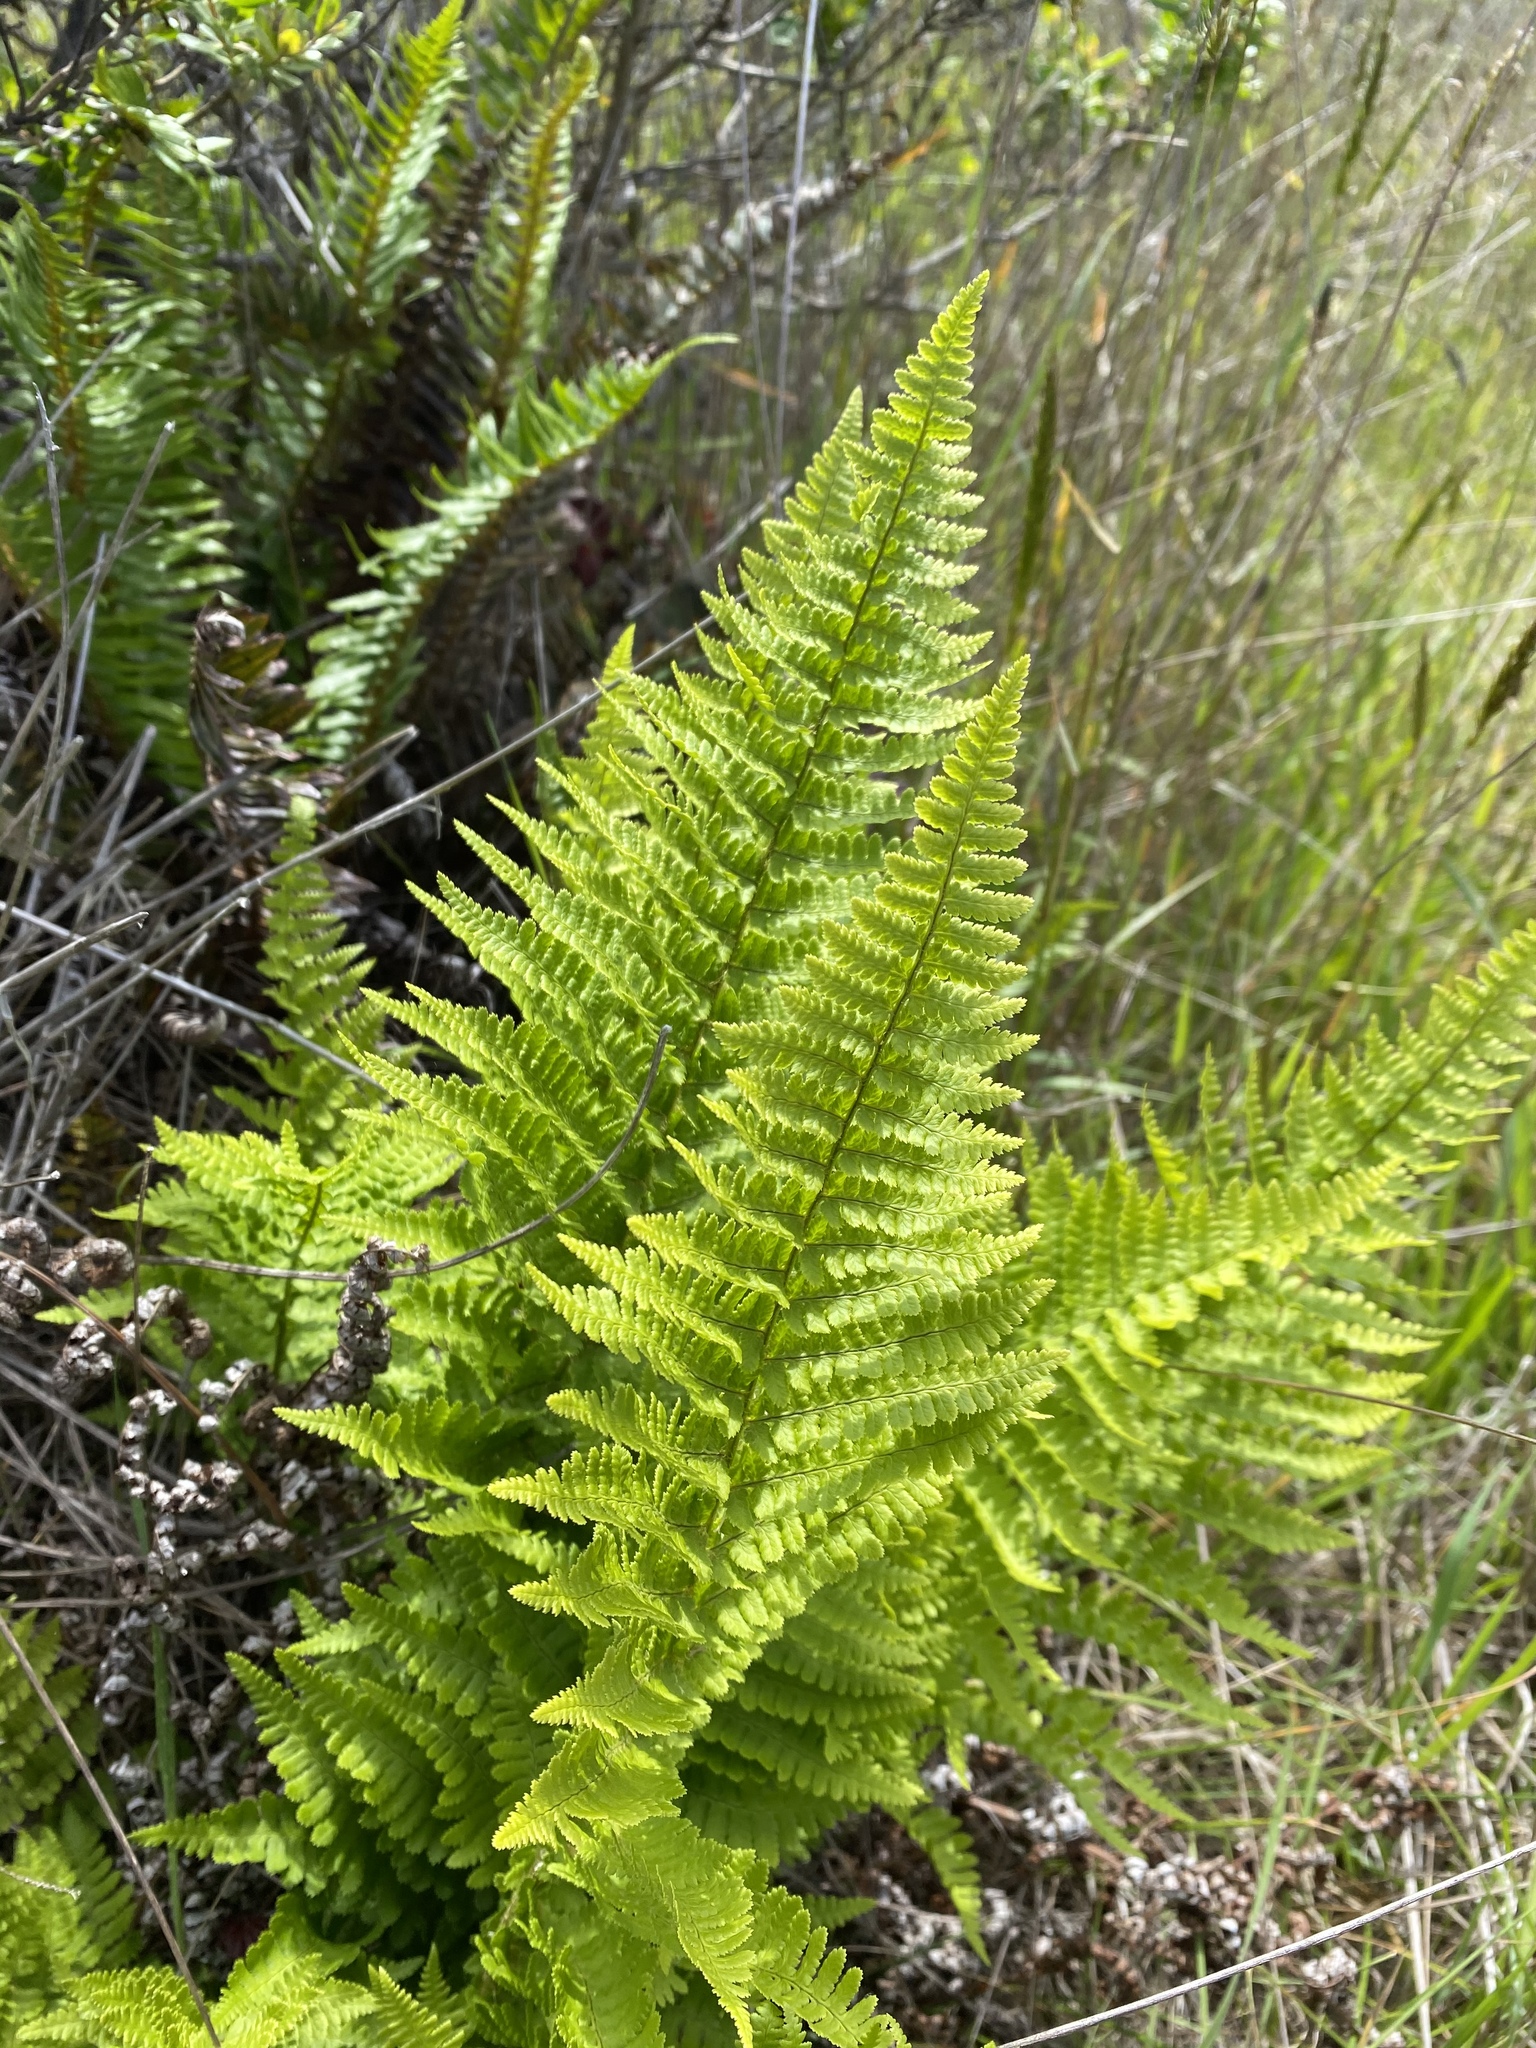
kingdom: Plantae
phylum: Tracheophyta
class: Polypodiopsida
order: Polypodiales
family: Dryopteridaceae
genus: Dryopteris
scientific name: Dryopteris arguta
